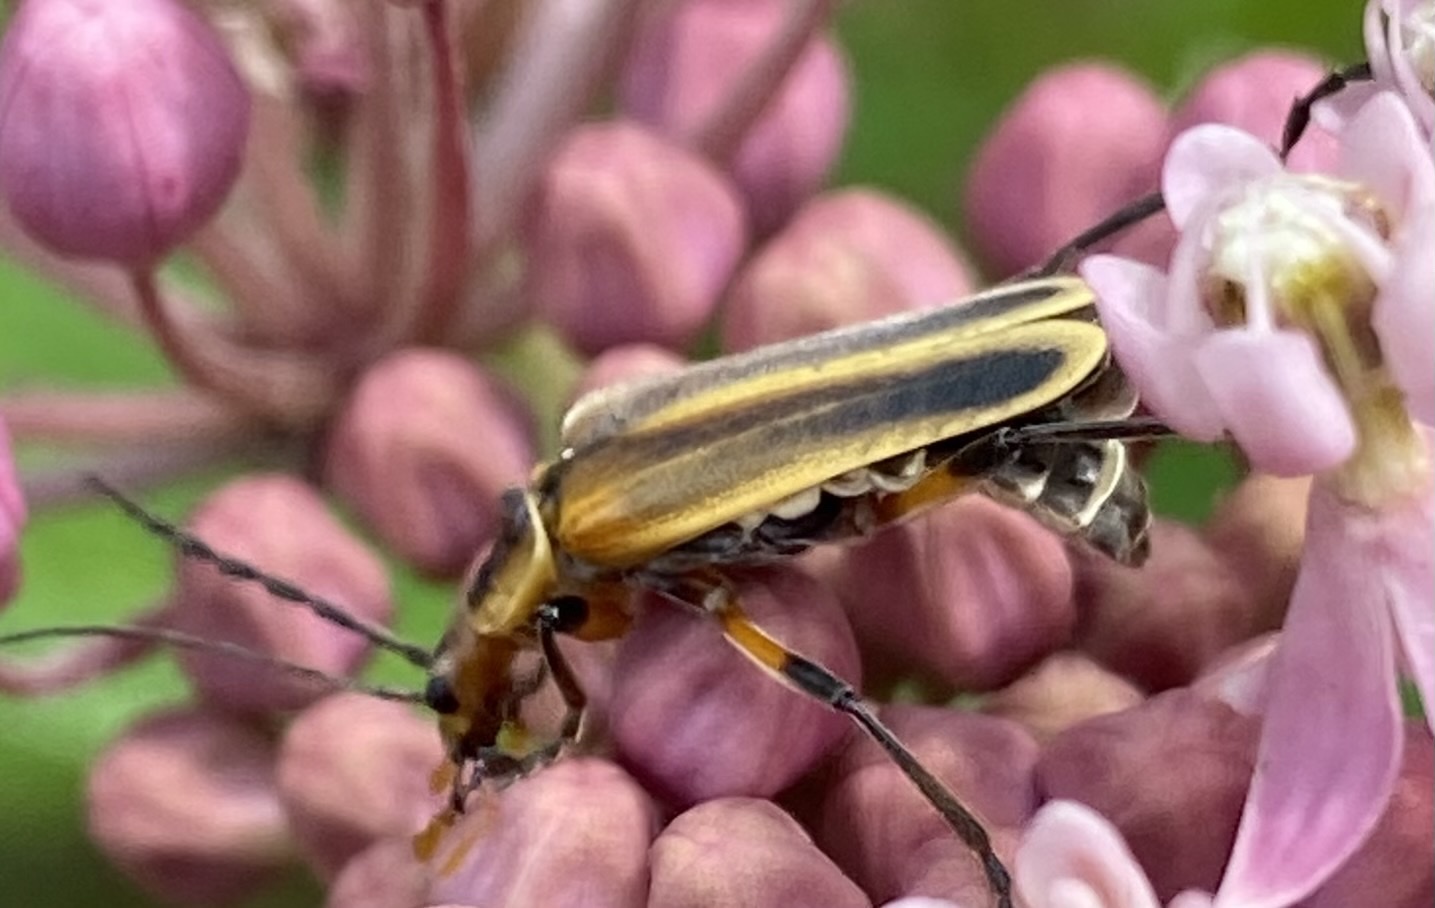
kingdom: Animalia
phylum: Arthropoda
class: Insecta
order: Coleoptera
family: Cantharidae
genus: Chauliognathus
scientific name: Chauliognathus marginatus
